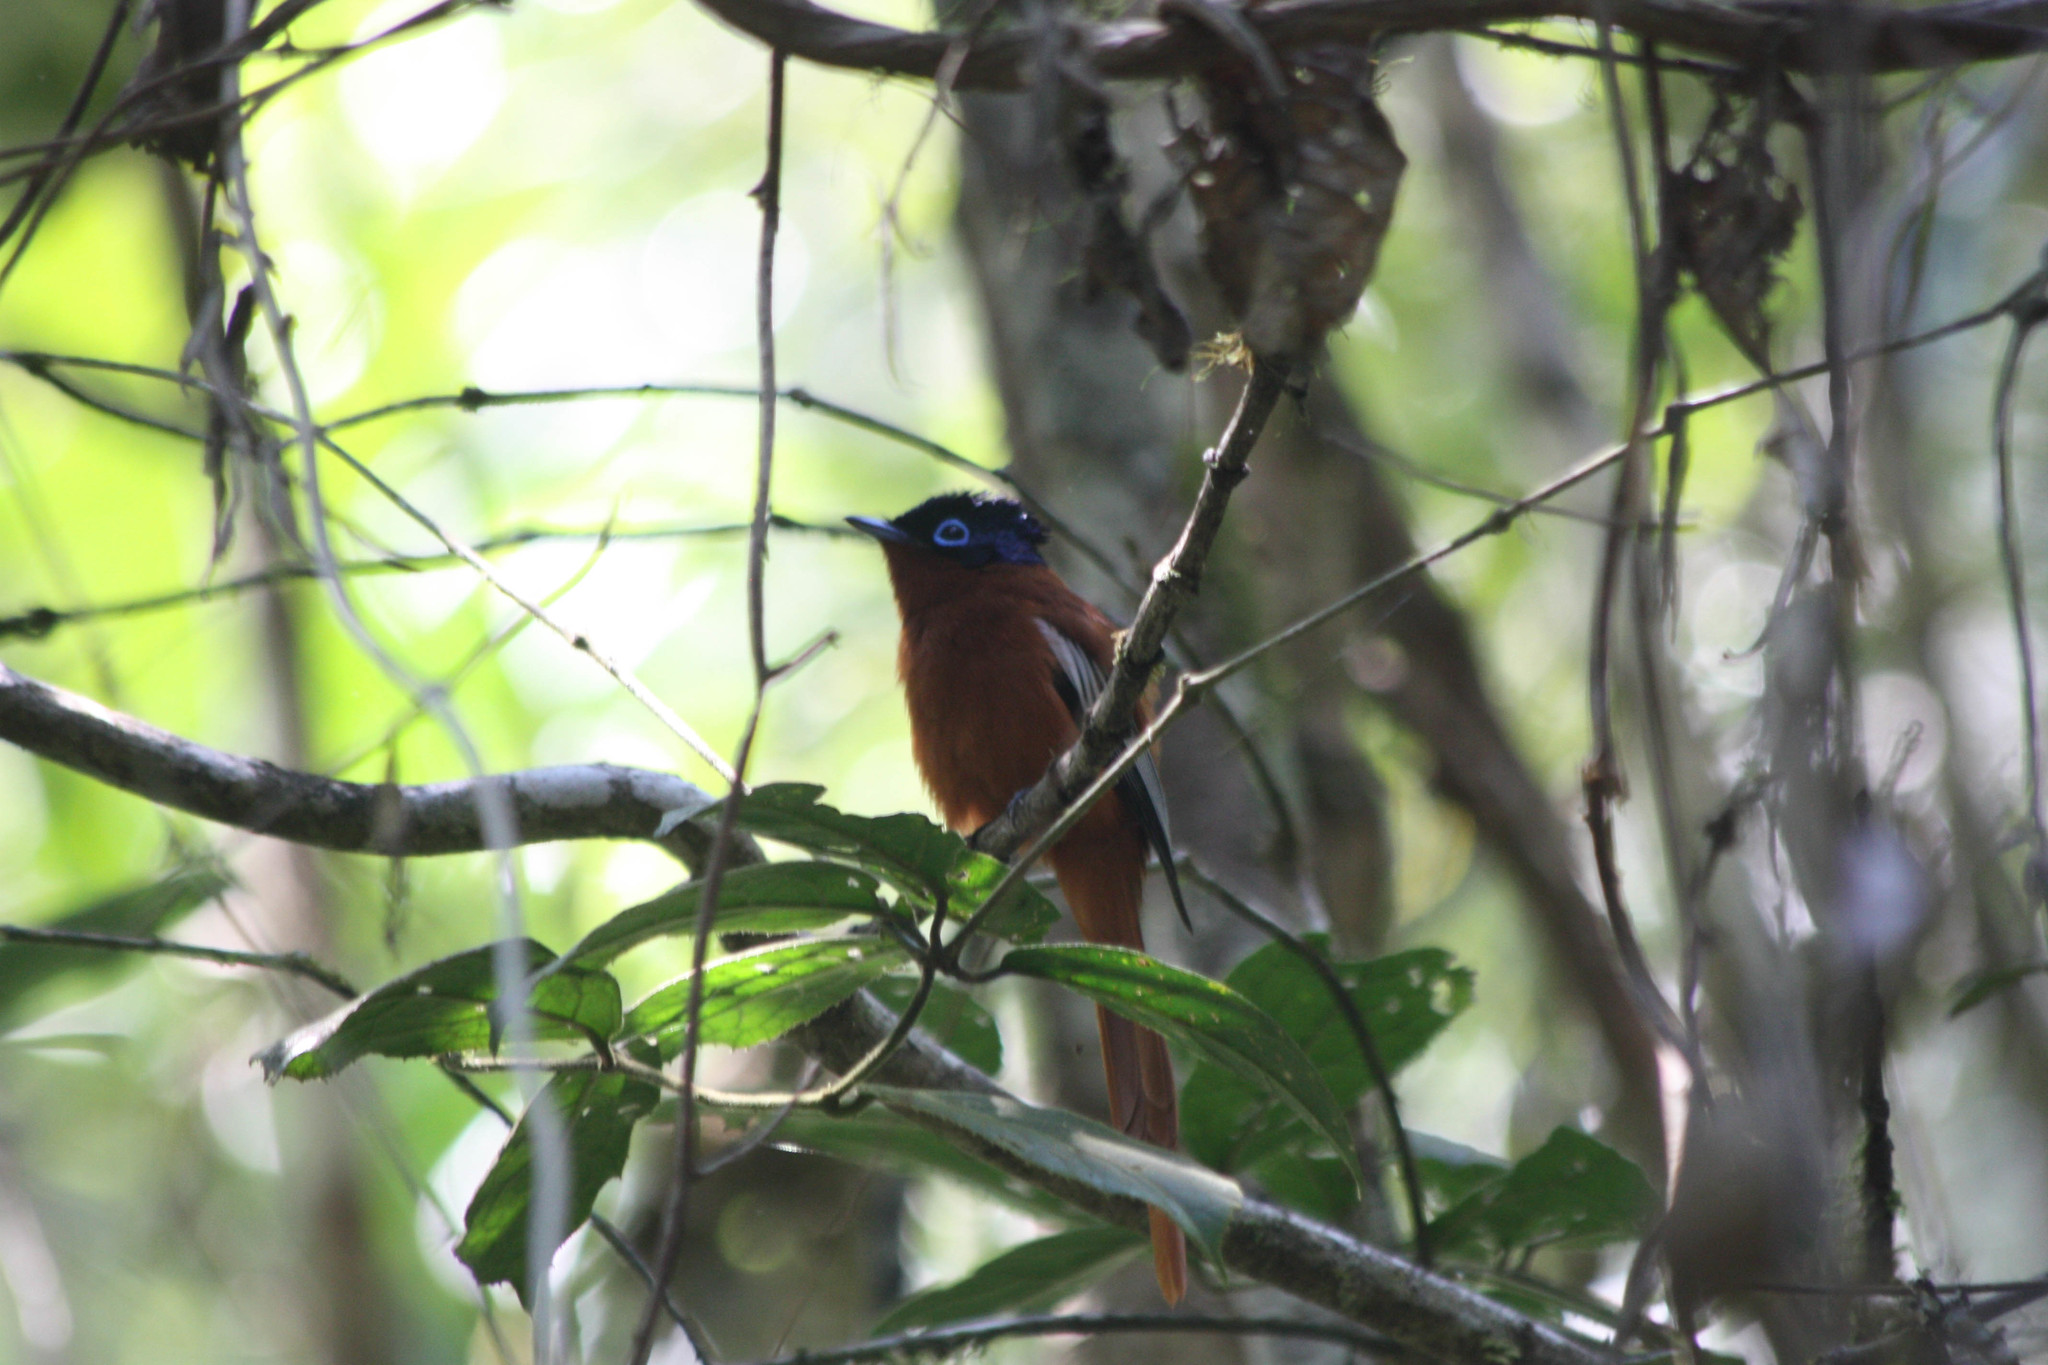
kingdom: Animalia
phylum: Chordata
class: Aves
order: Passeriformes
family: Monarchidae
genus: Terpsiphone
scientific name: Terpsiphone mutata
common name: Malagasy paradise flycatcher
